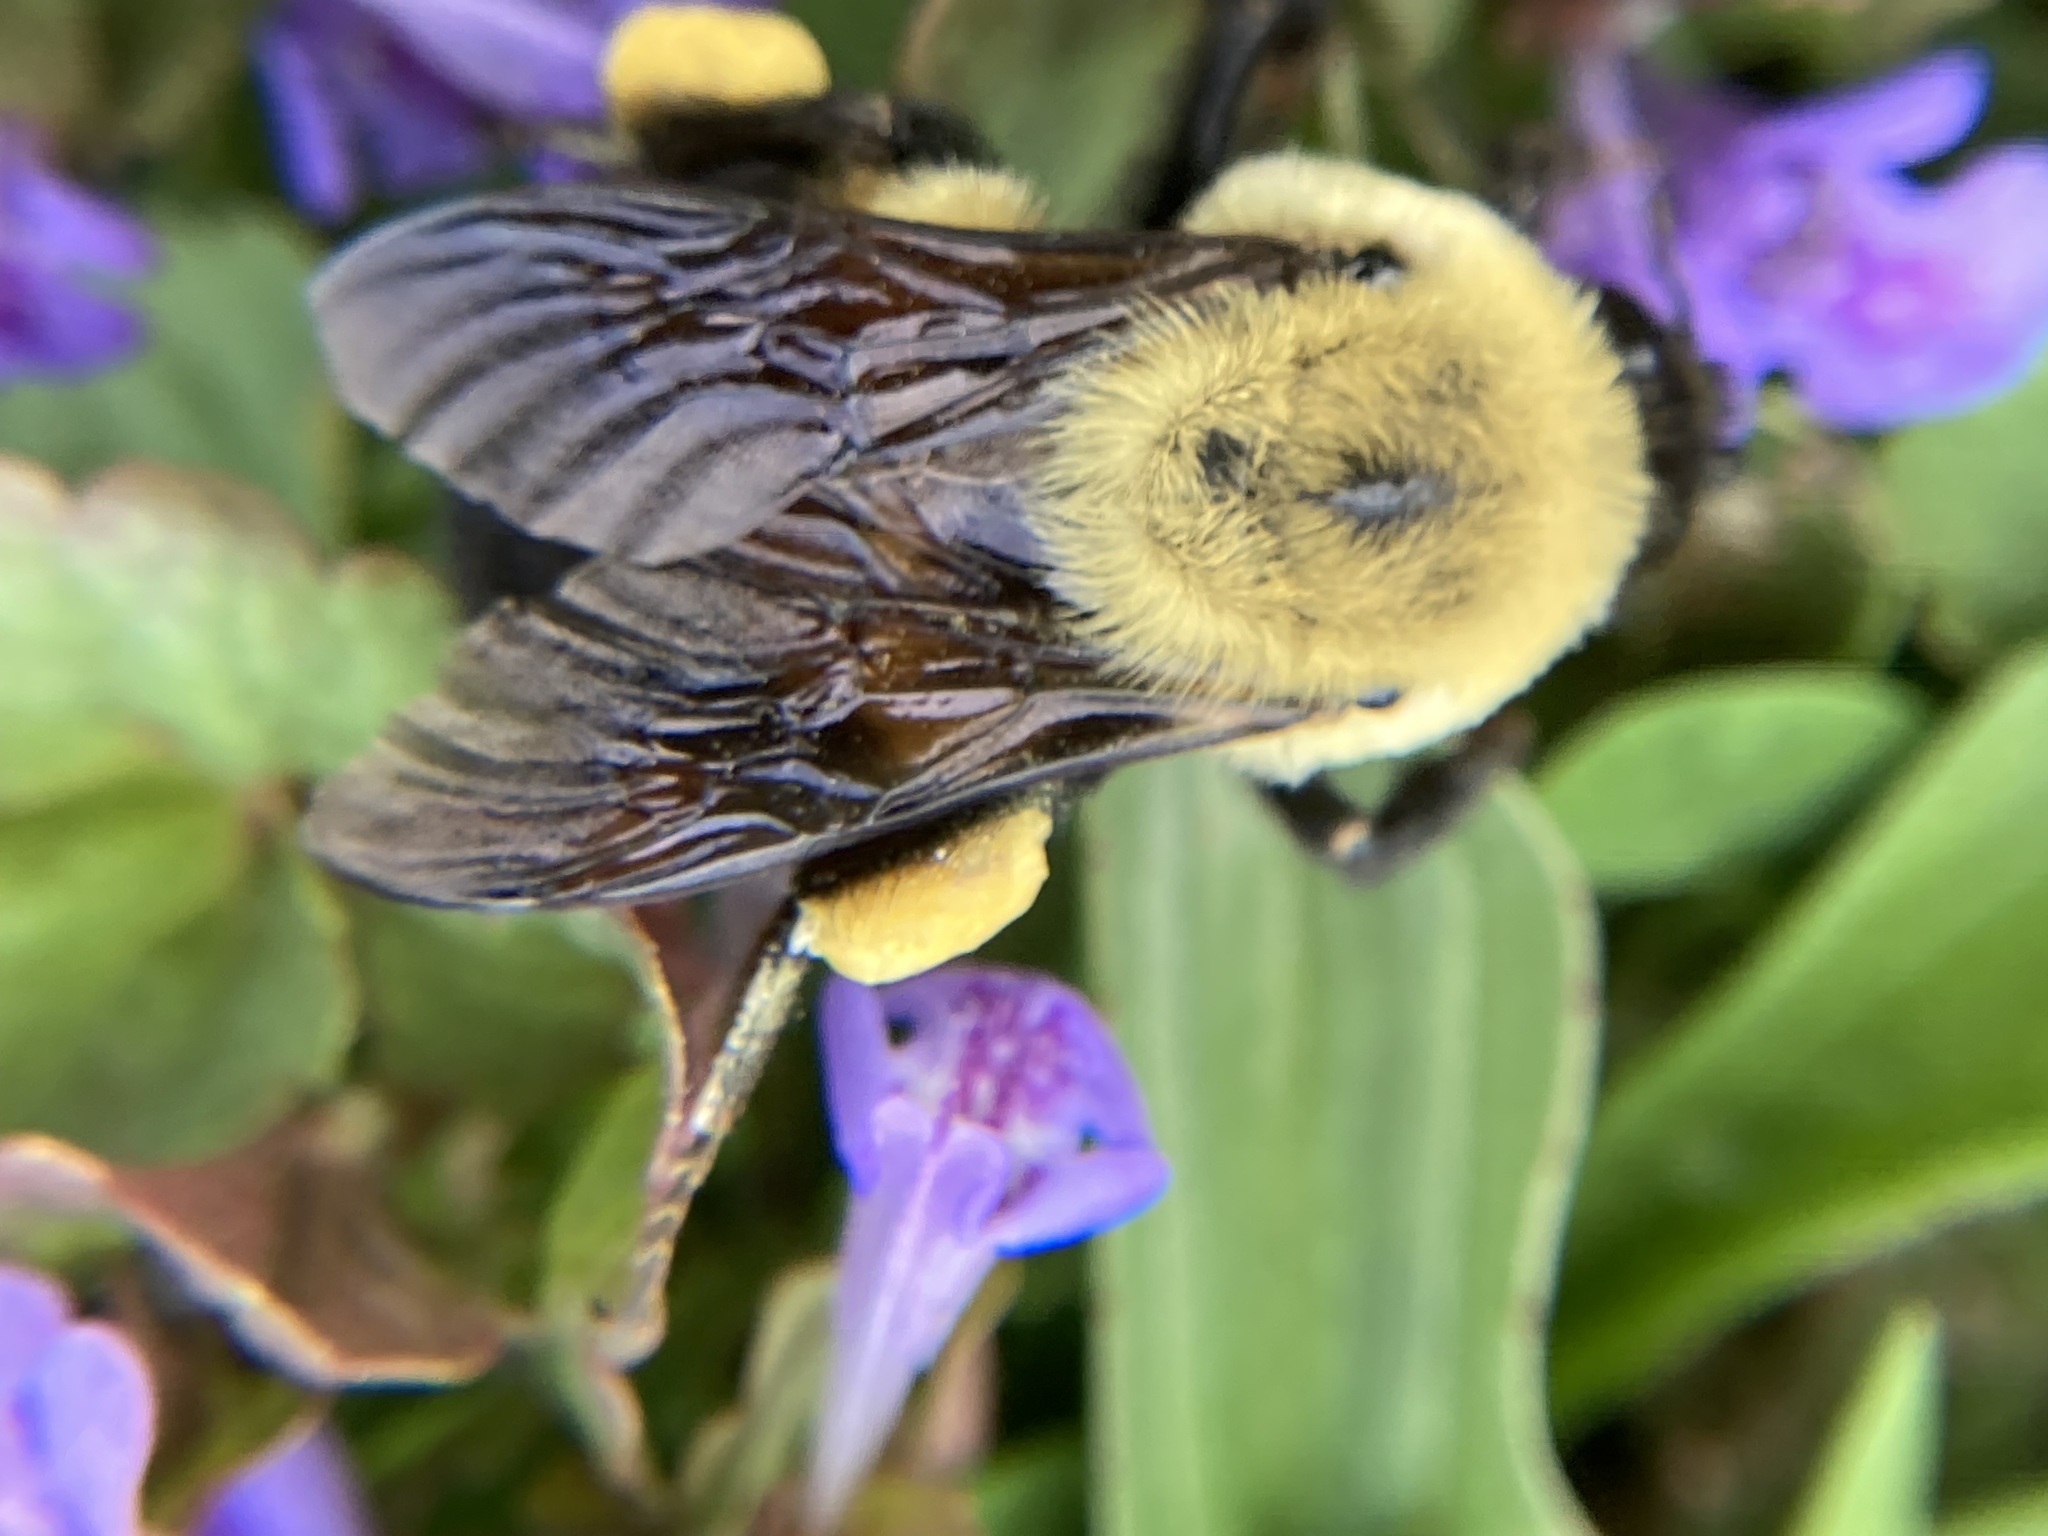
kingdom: Animalia
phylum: Arthropoda
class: Insecta
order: Hymenoptera
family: Apidae
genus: Bombus
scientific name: Bombus griseocollis
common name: Brown-belted bumble bee
